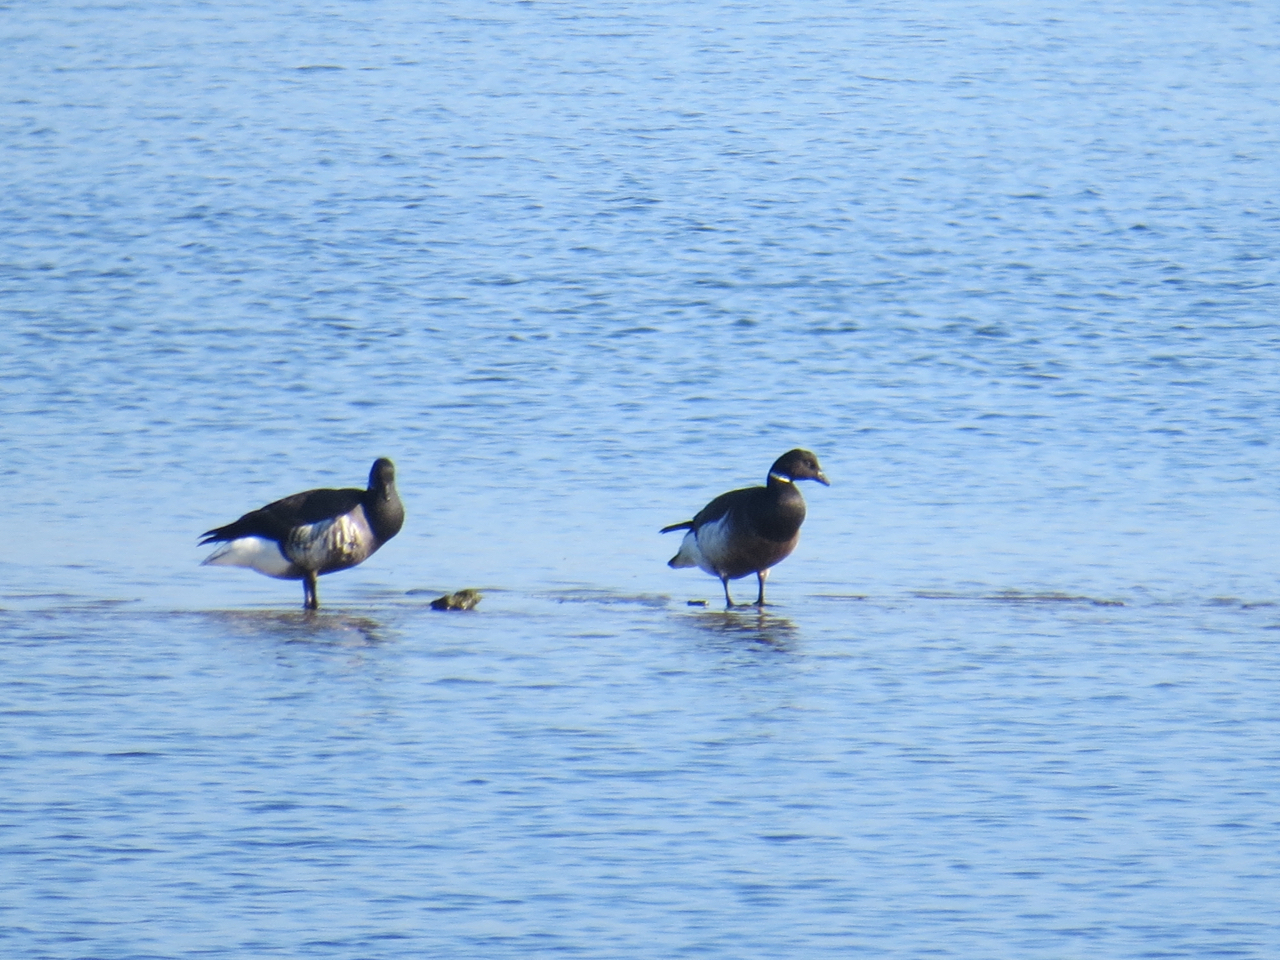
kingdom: Animalia
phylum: Chordata
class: Aves
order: Anseriformes
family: Anatidae
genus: Branta
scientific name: Branta bernicla
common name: Brant goose
